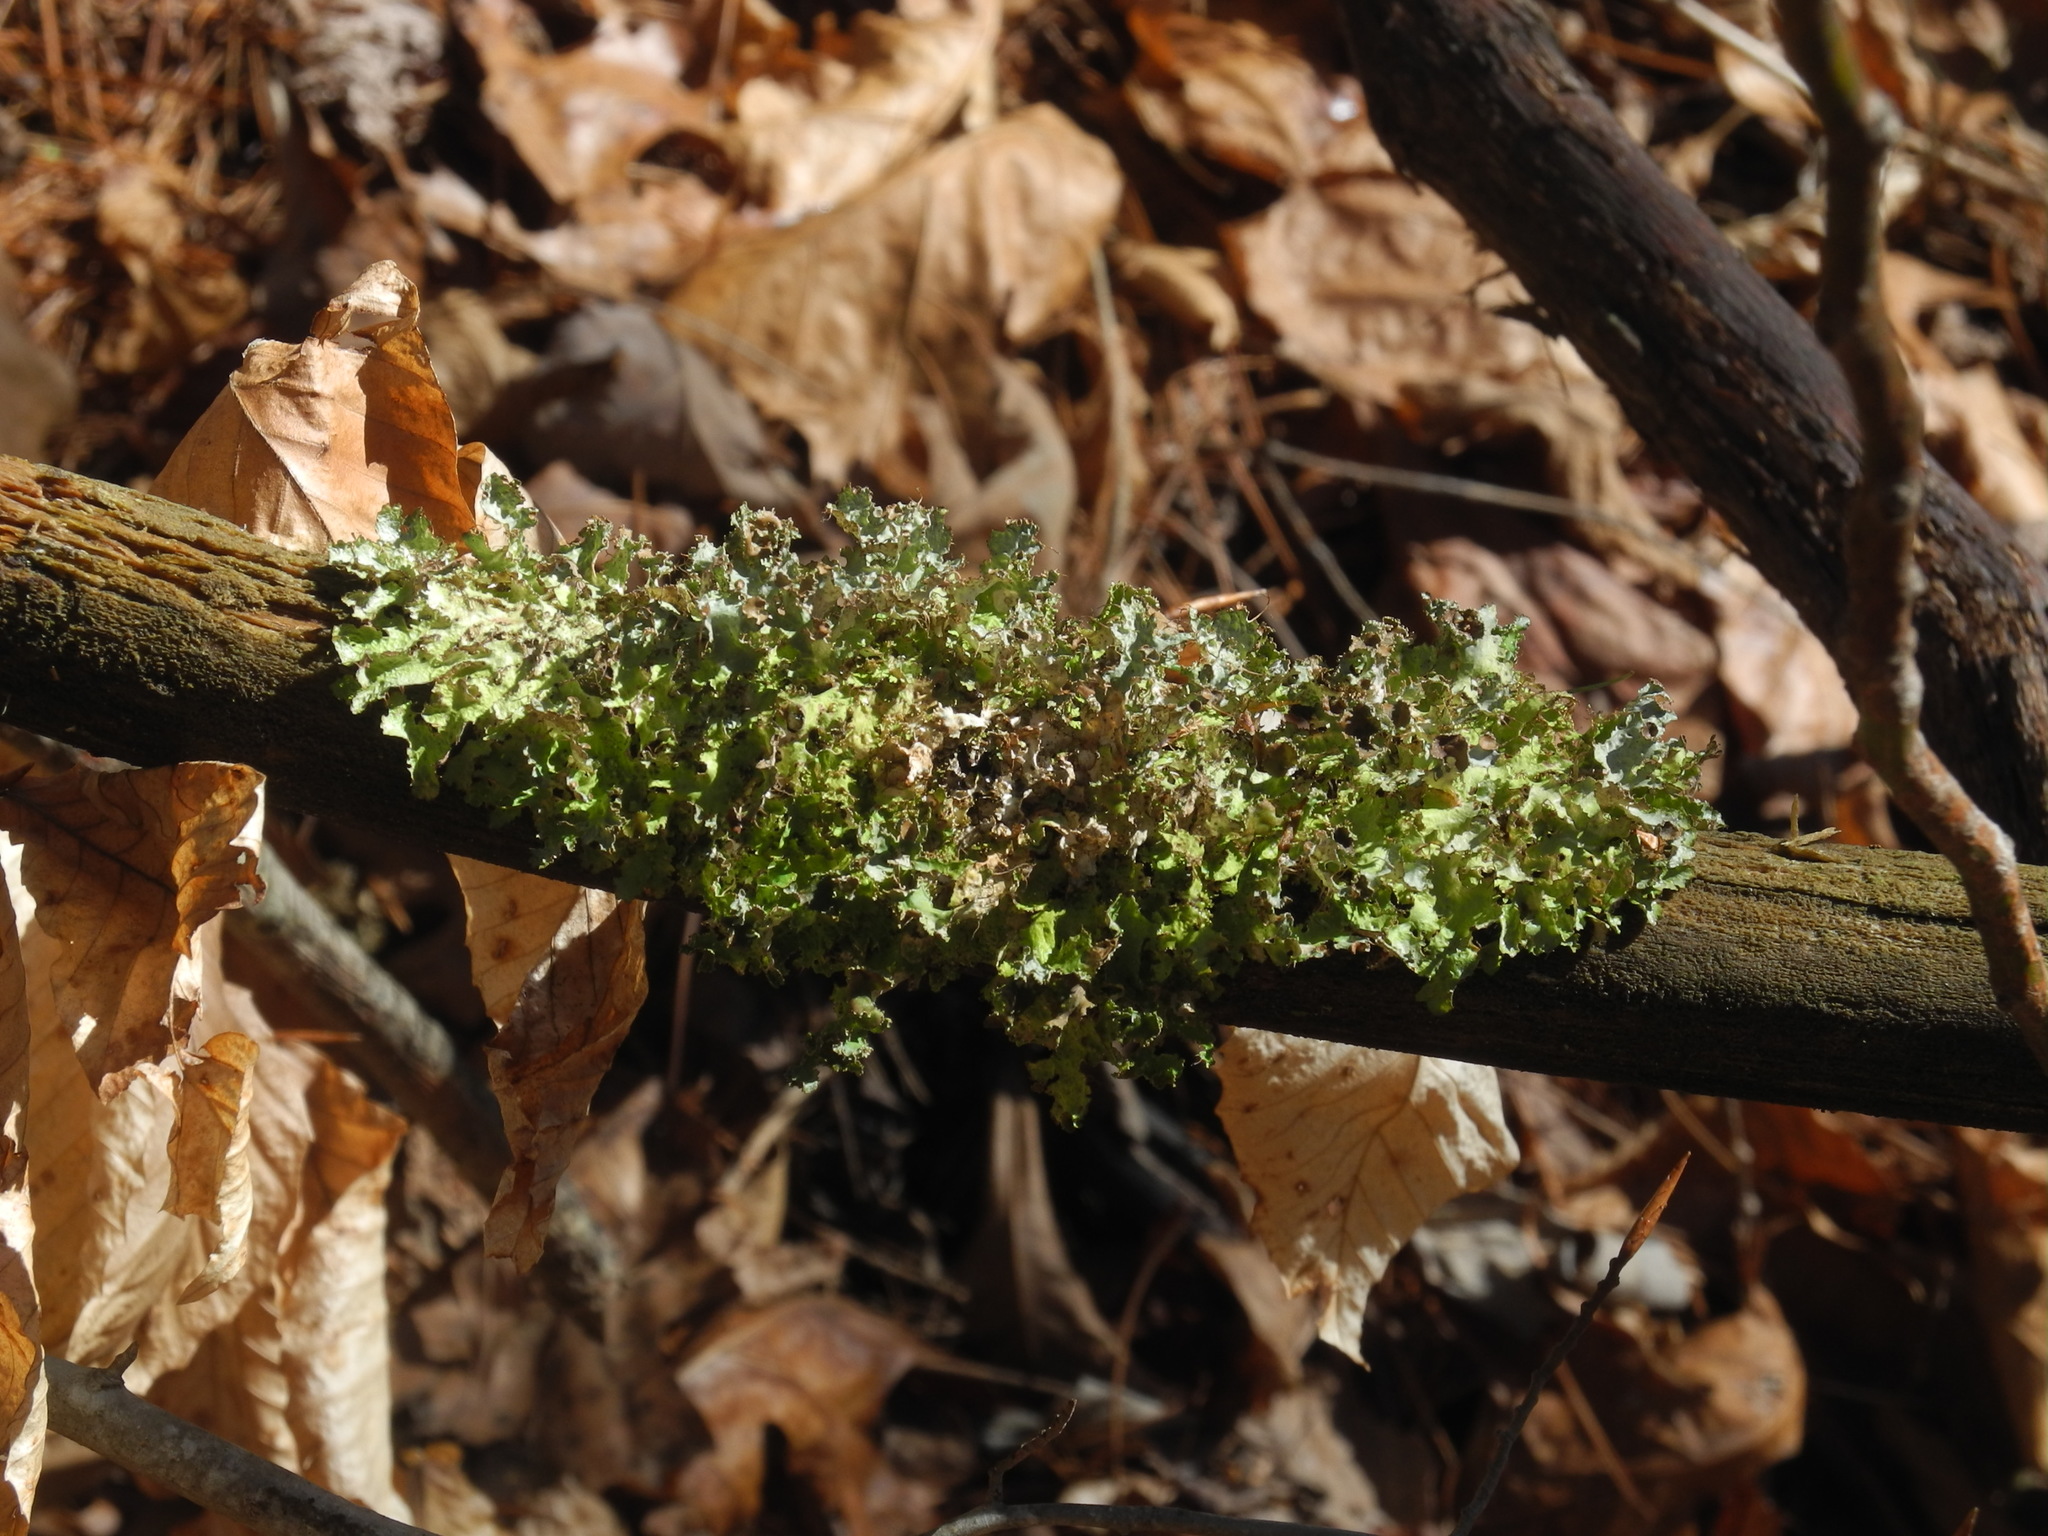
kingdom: Fungi
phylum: Ascomycota
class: Lecanoromycetes
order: Lecanorales
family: Parmeliaceae
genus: Nephromopsis
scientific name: Nephromopsis orbata
